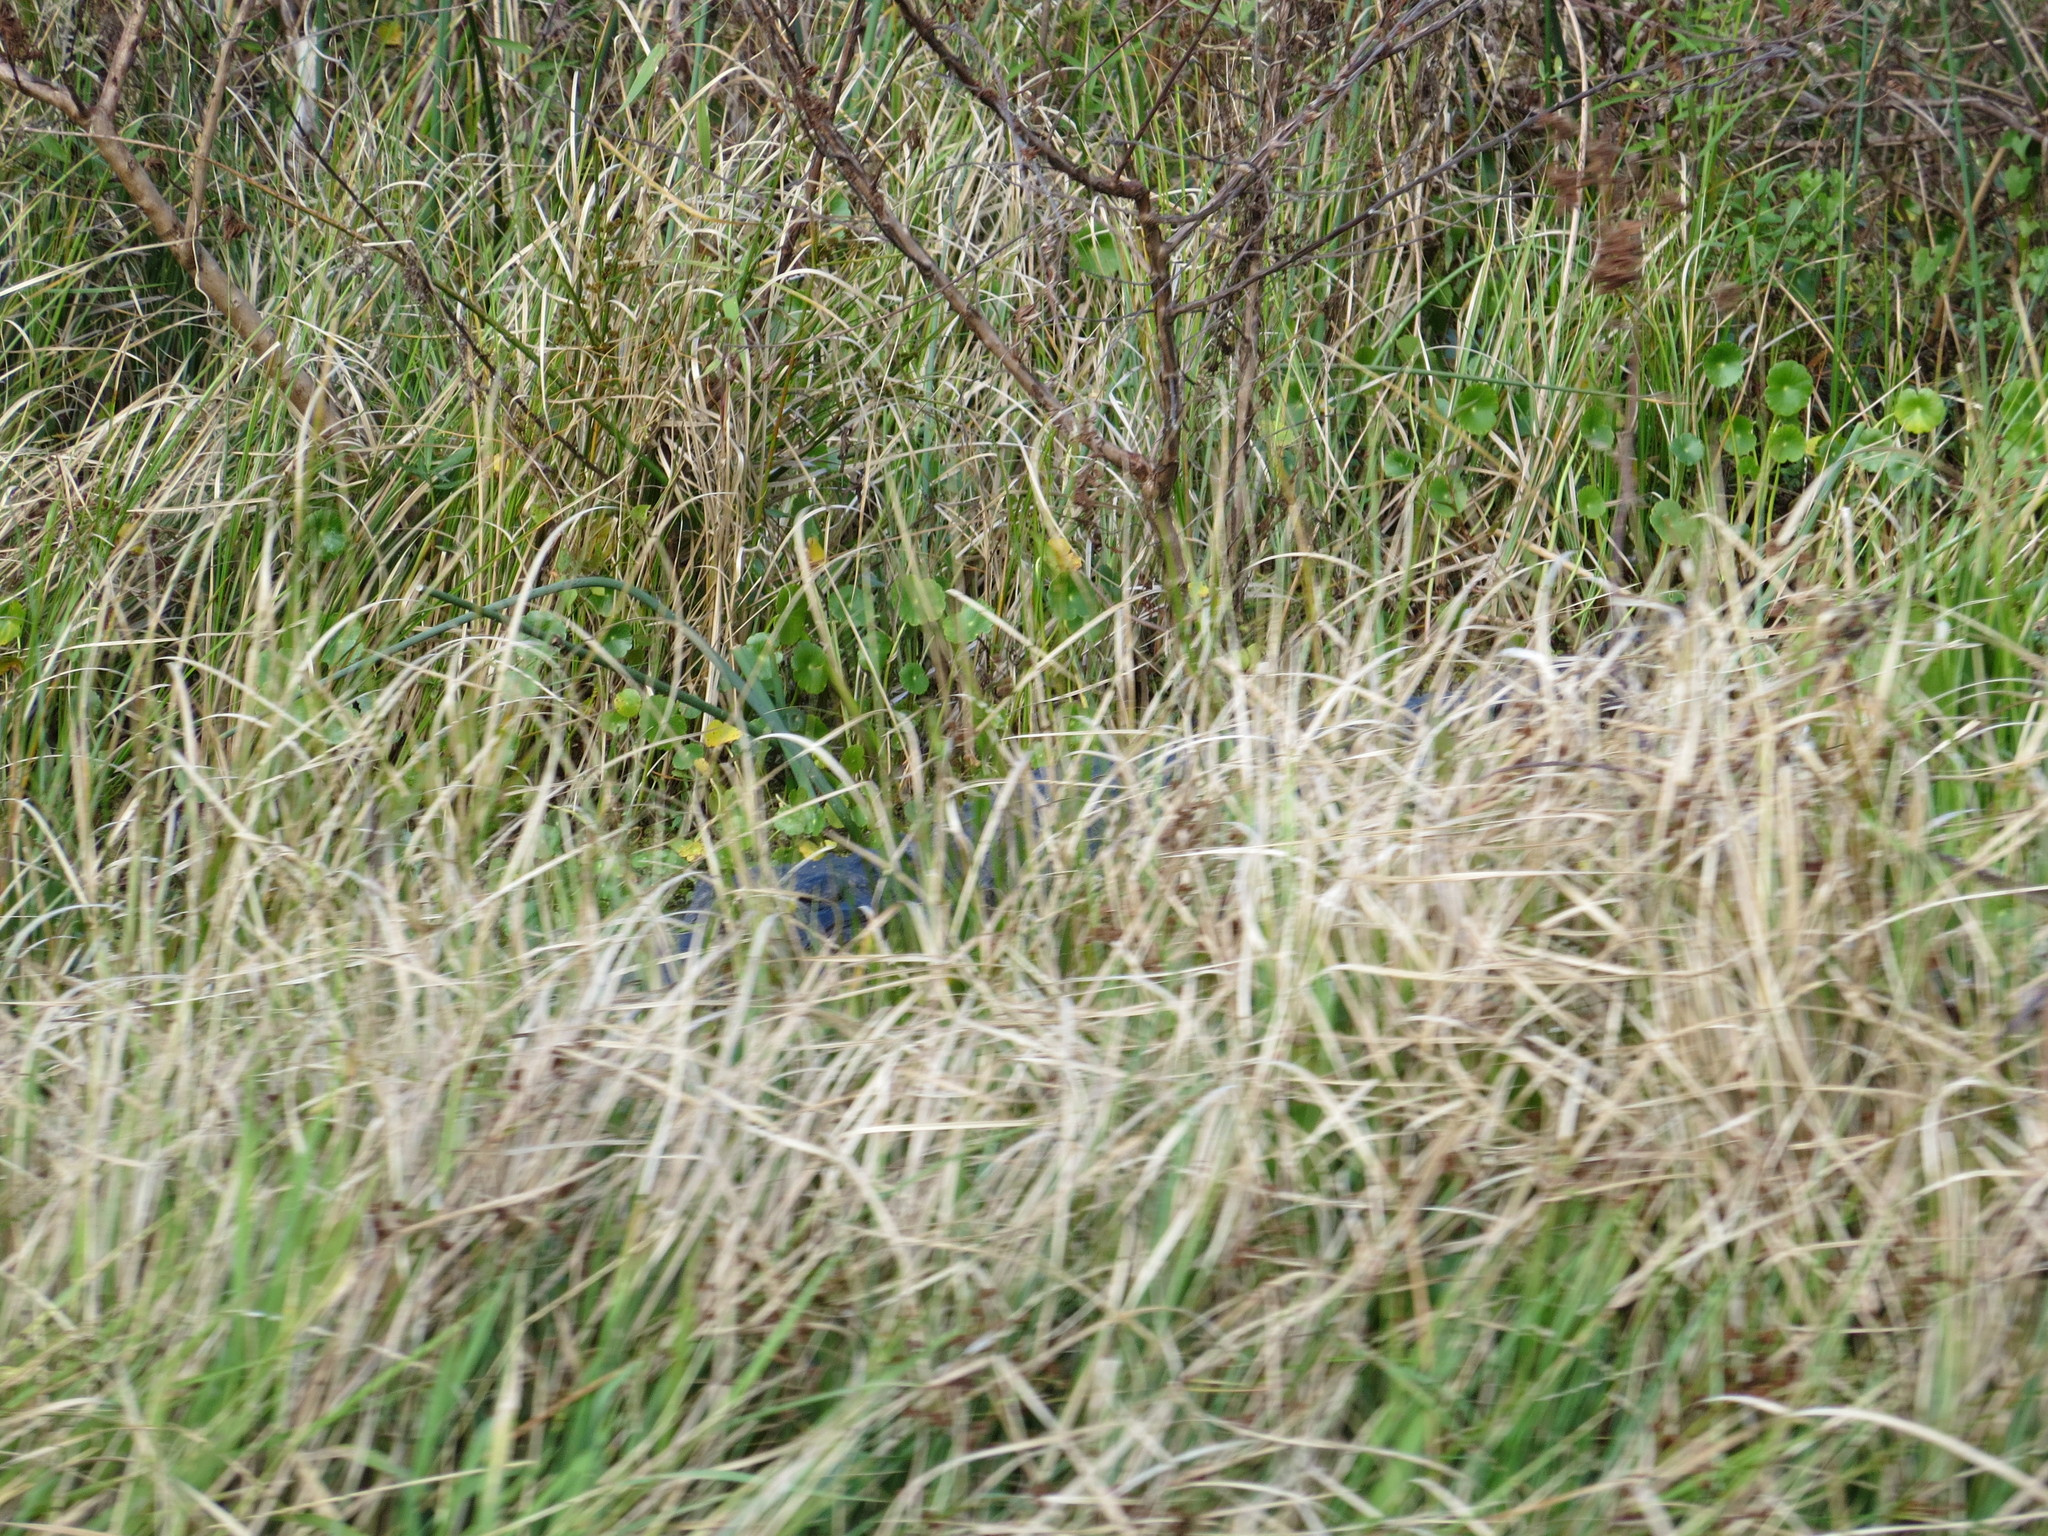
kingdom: Animalia
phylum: Chordata
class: Crocodylia
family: Alligatoridae
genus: Alligator
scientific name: Alligator mississippiensis
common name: American alligator
